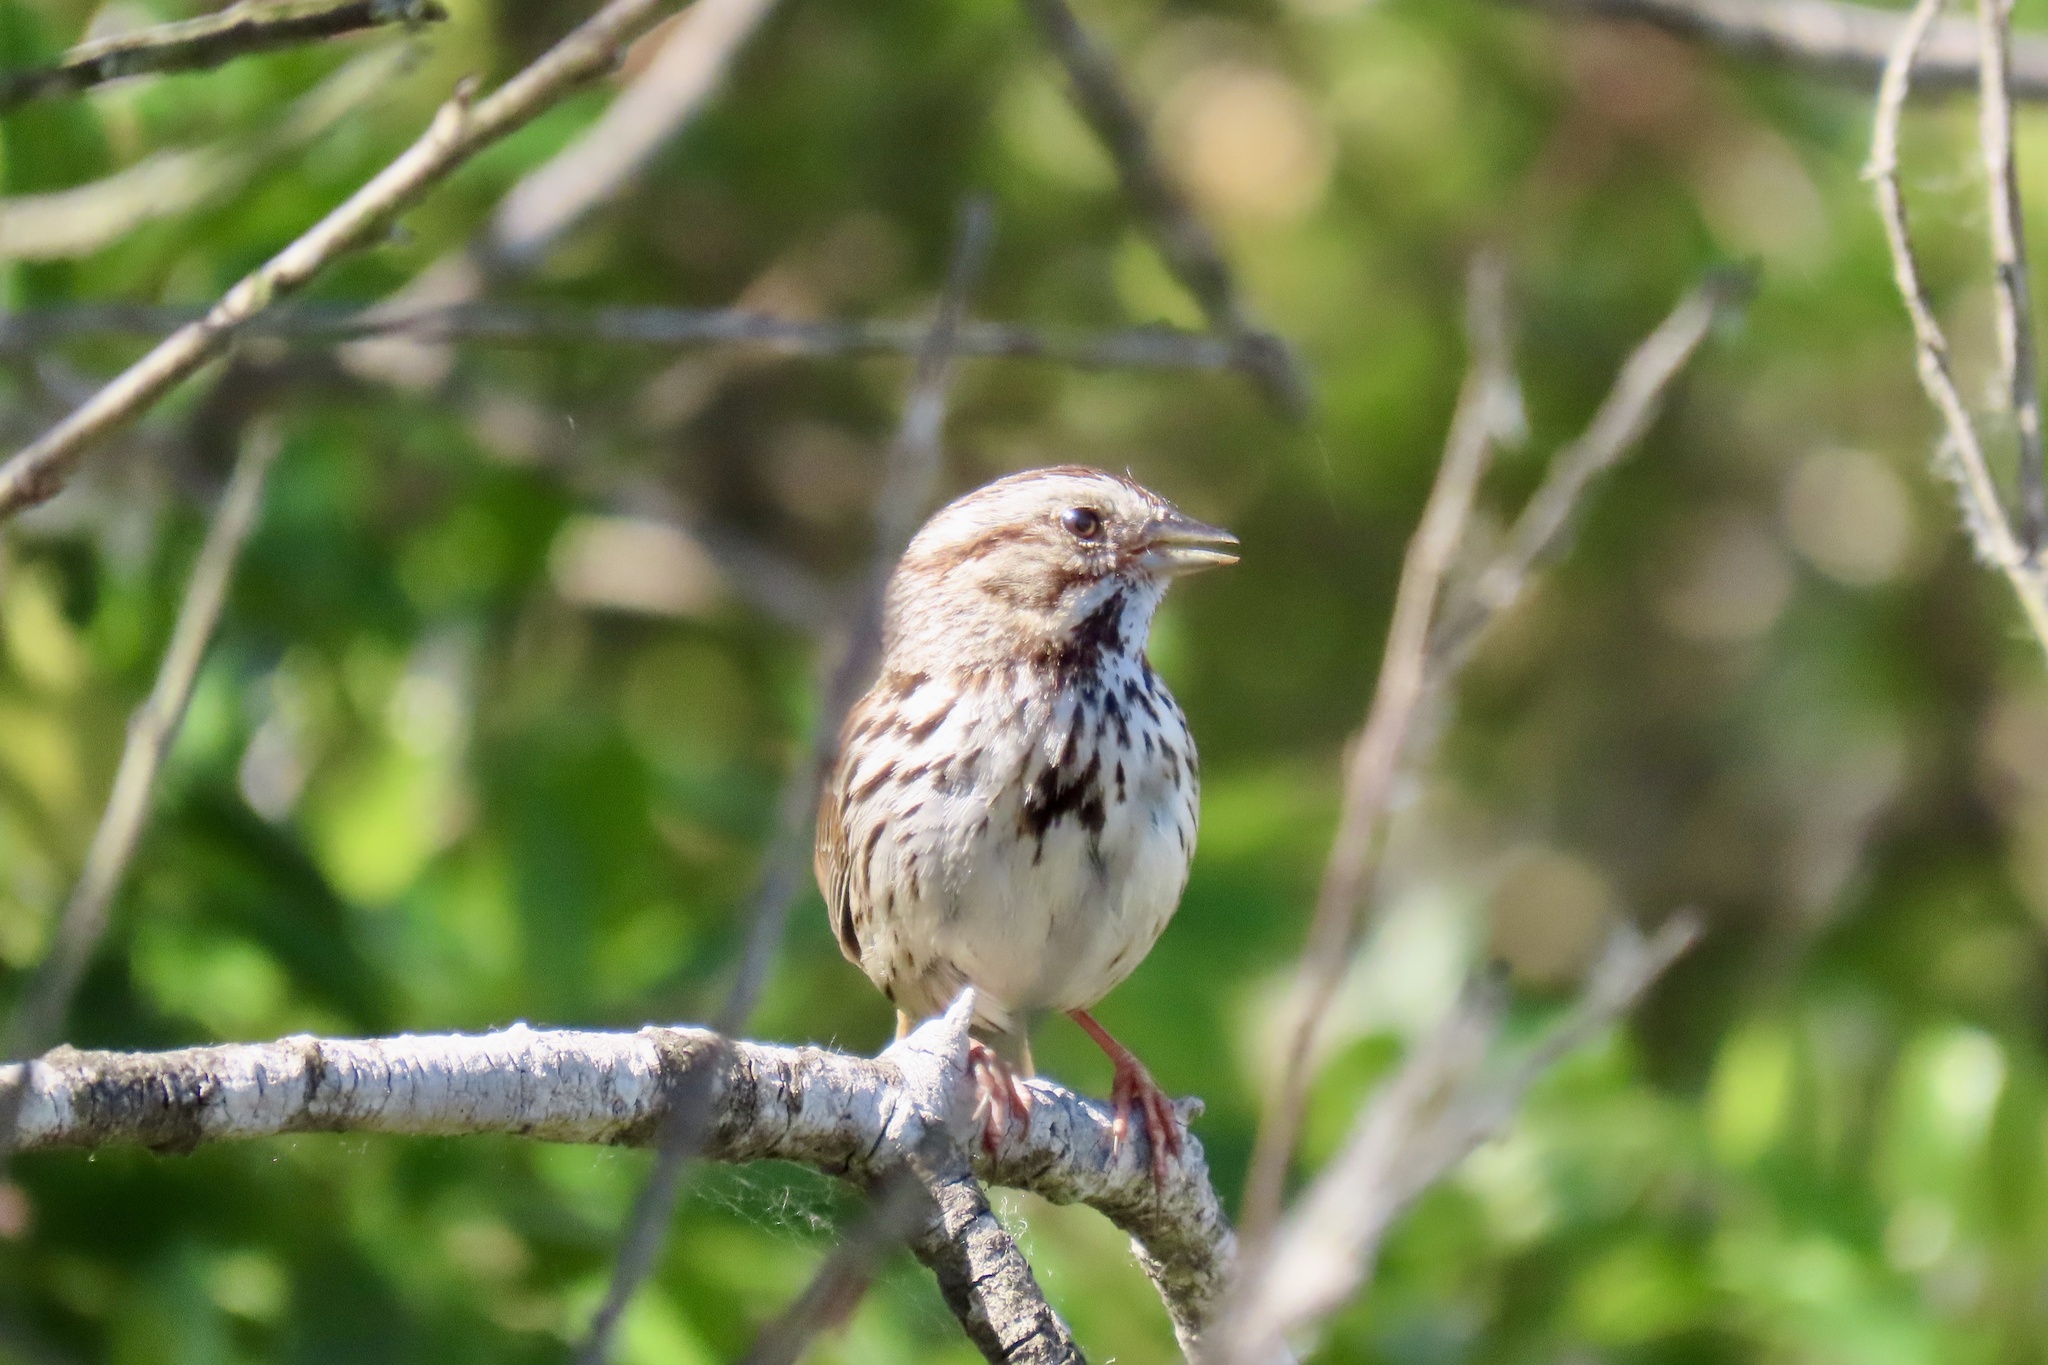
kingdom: Animalia
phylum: Chordata
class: Aves
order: Passeriformes
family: Passerellidae
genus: Melospiza
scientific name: Melospiza melodia
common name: Song sparrow
